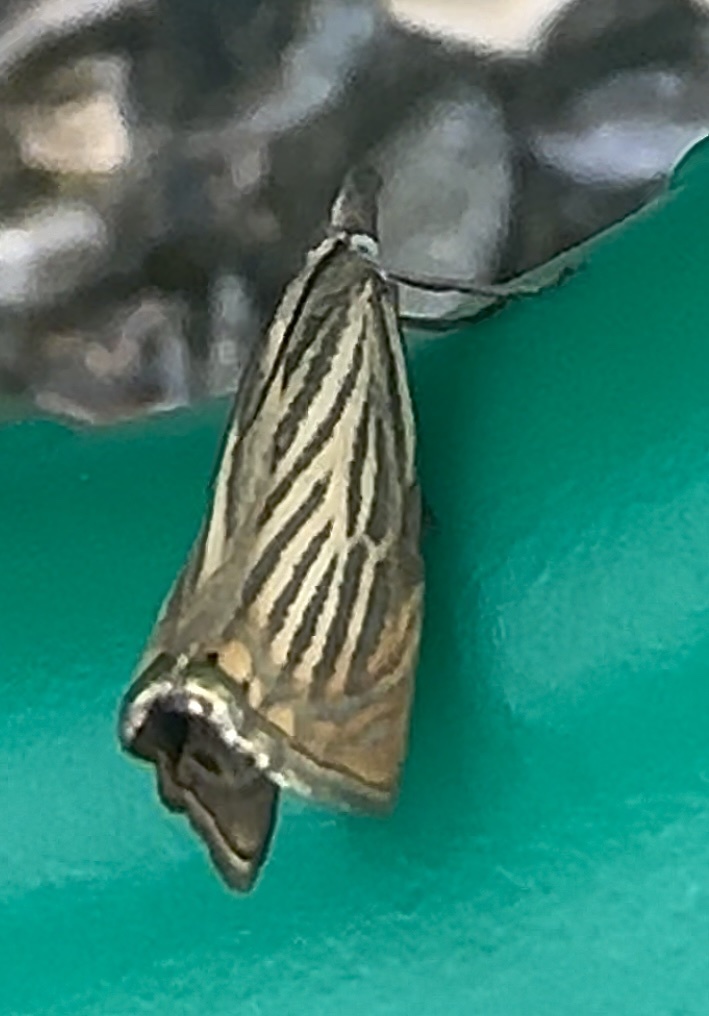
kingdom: Animalia
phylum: Arthropoda
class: Insecta
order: Lepidoptera
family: Crambidae
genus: Chrysoteuchia
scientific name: Chrysoteuchia culmella
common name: Garden grass-veneer
